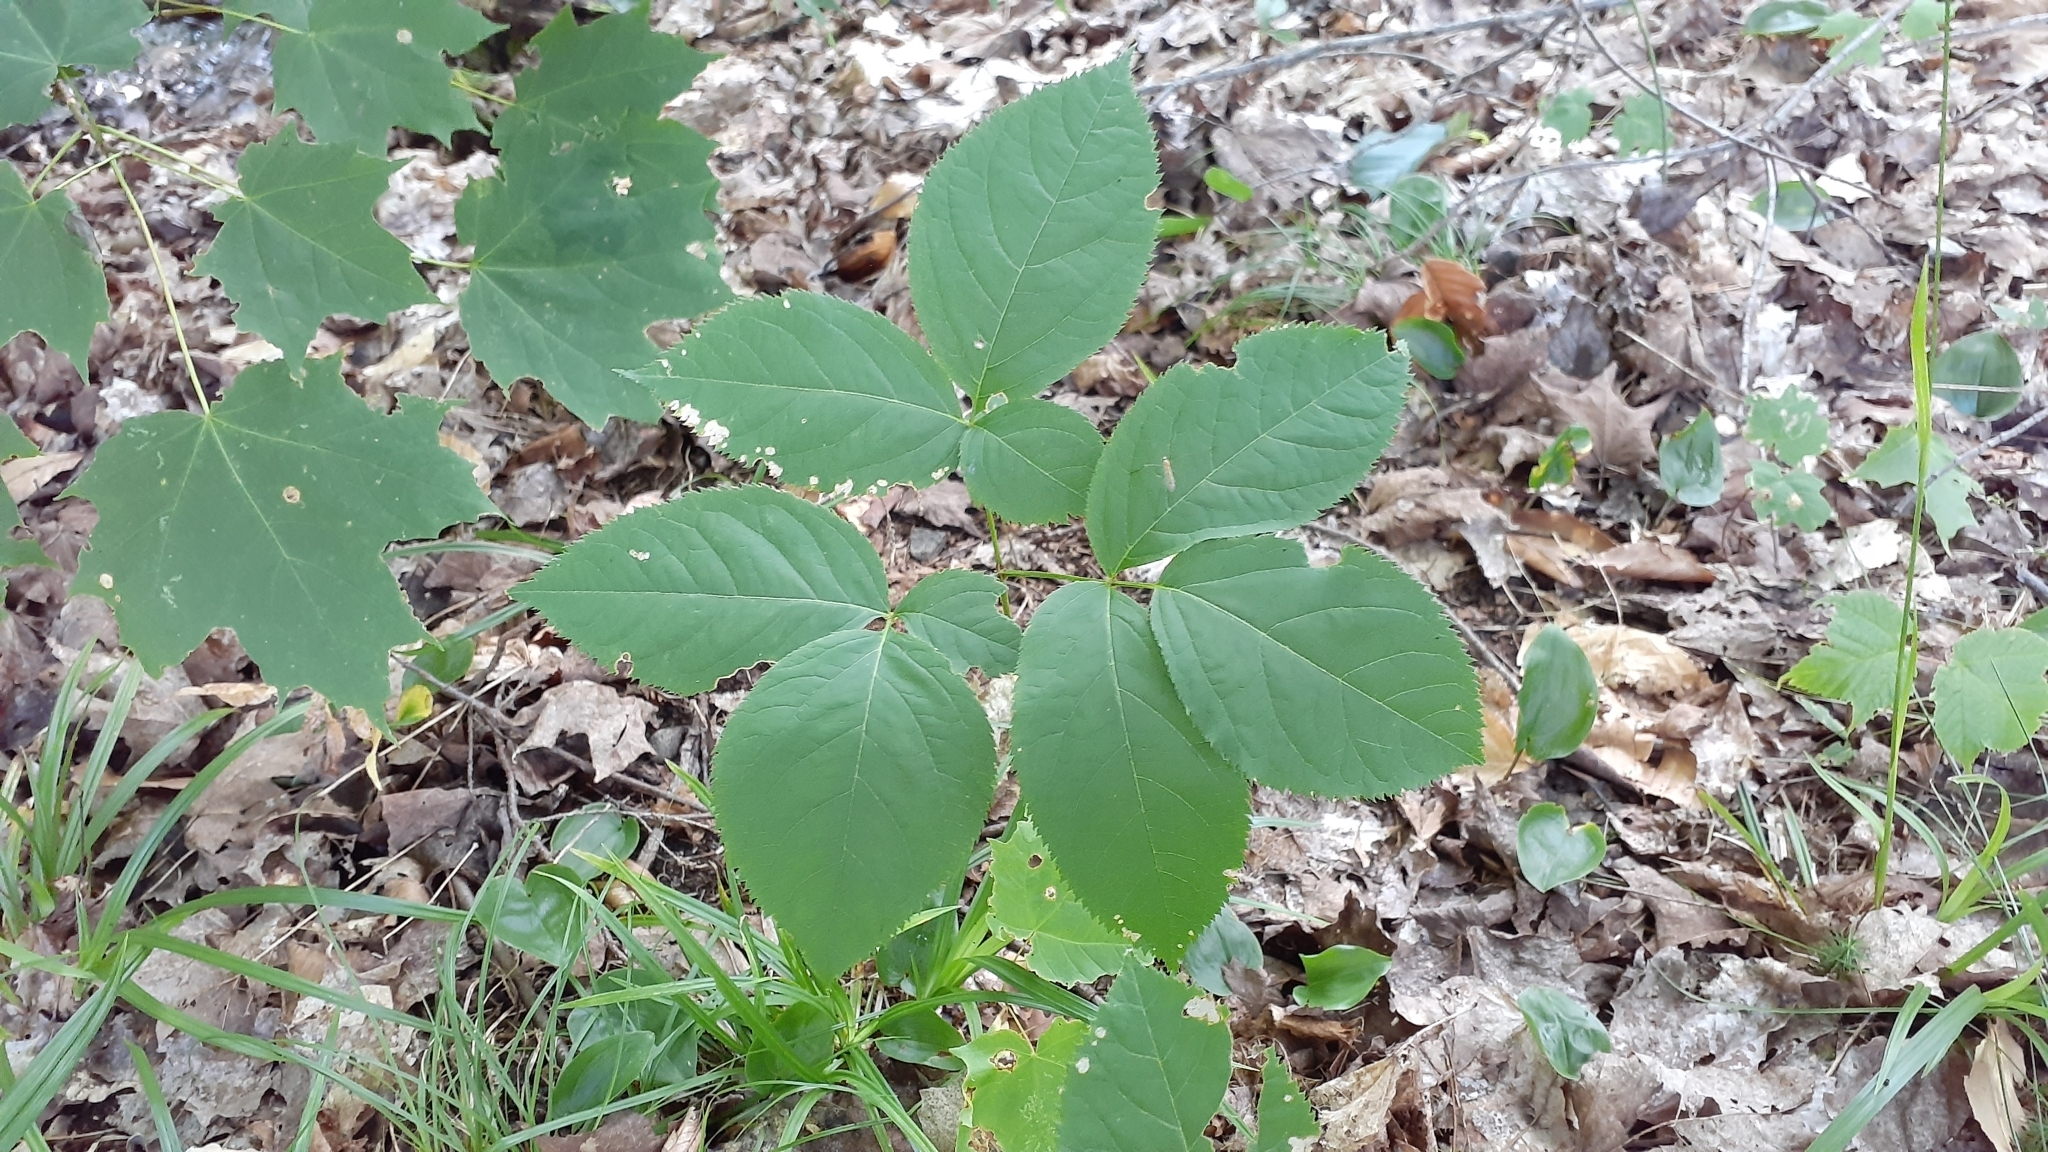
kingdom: Plantae
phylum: Tracheophyta
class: Magnoliopsida
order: Apiales
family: Araliaceae
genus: Aralia
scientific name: Aralia nudicaulis
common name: Wild sarsaparilla
